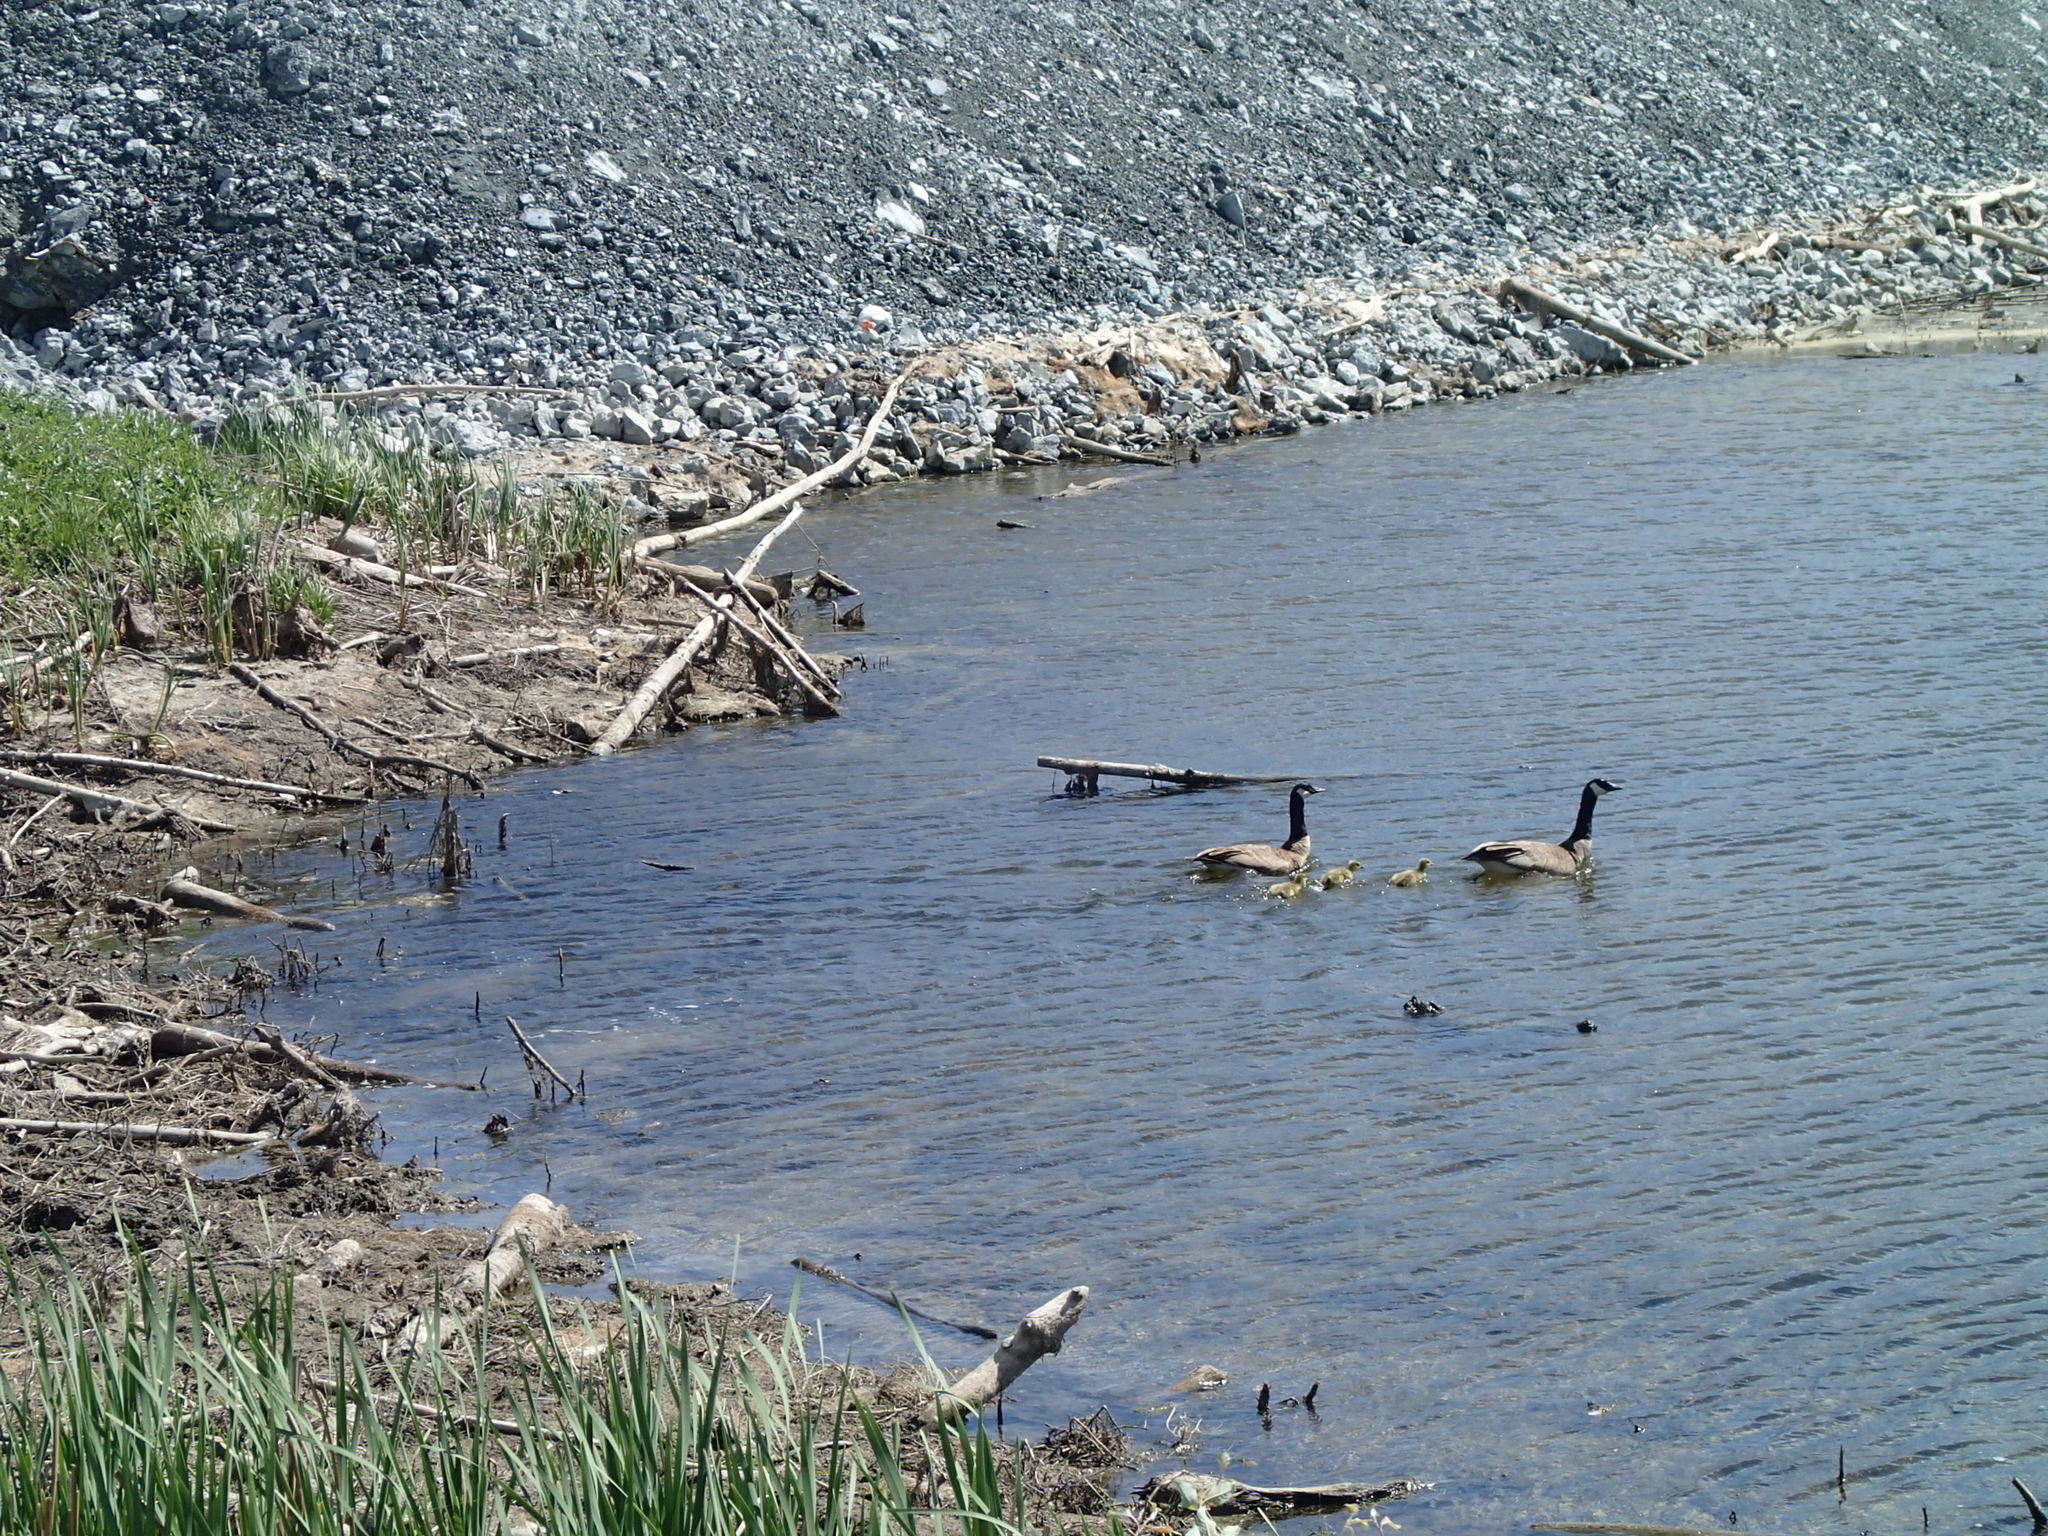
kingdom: Animalia
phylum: Chordata
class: Aves
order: Anseriformes
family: Anatidae
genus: Branta
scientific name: Branta canadensis
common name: Canada goose
